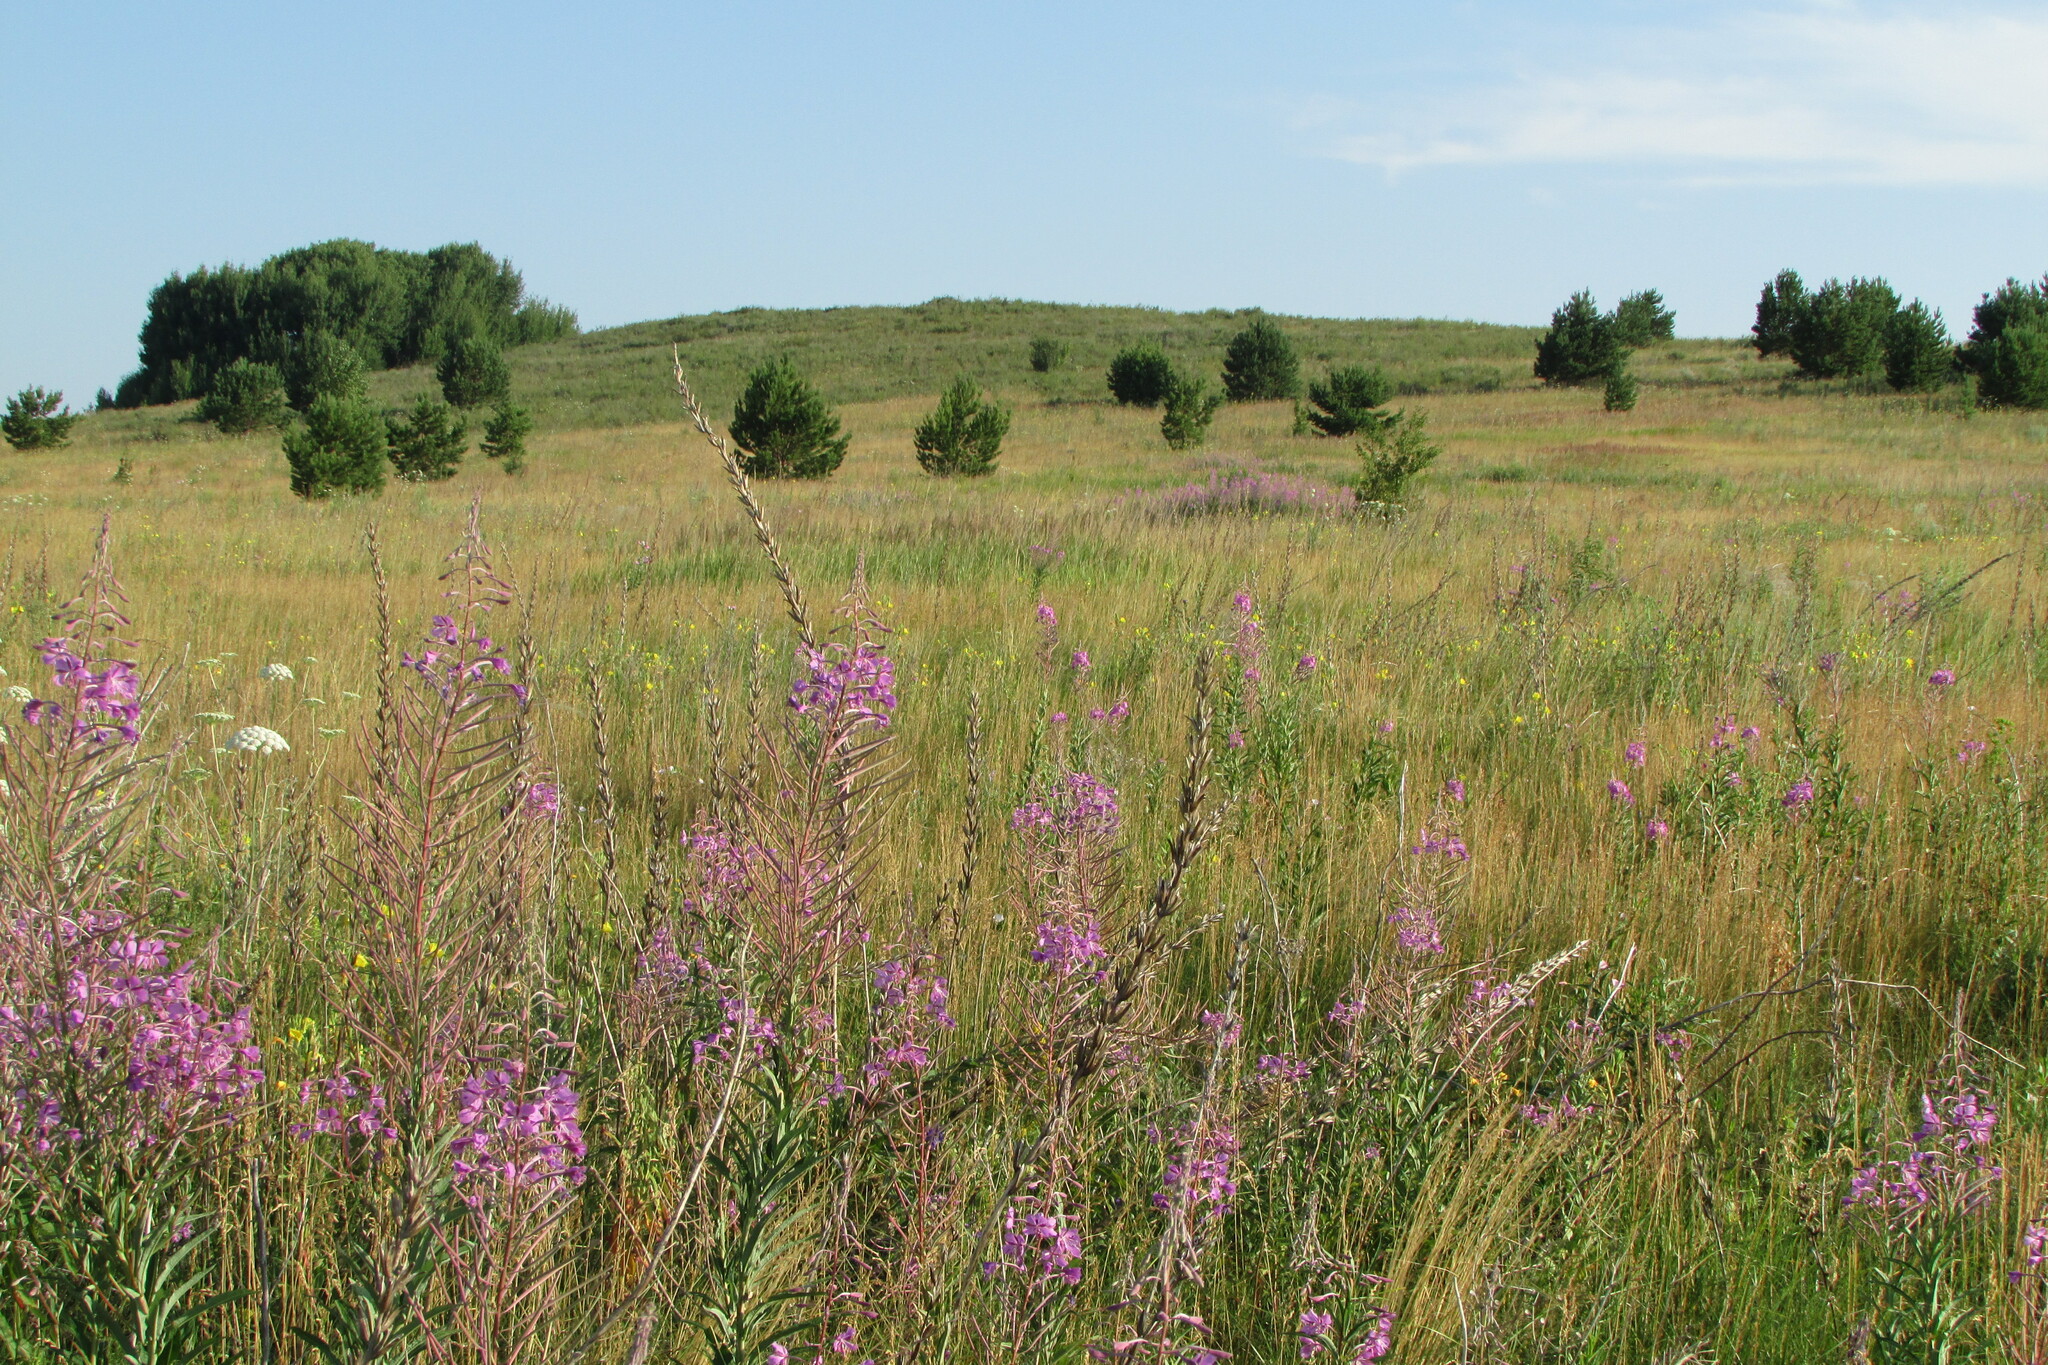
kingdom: Plantae
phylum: Tracheophyta
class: Magnoliopsida
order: Myrtales
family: Onagraceae
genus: Chamaenerion
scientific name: Chamaenerion angustifolium
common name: Fireweed
